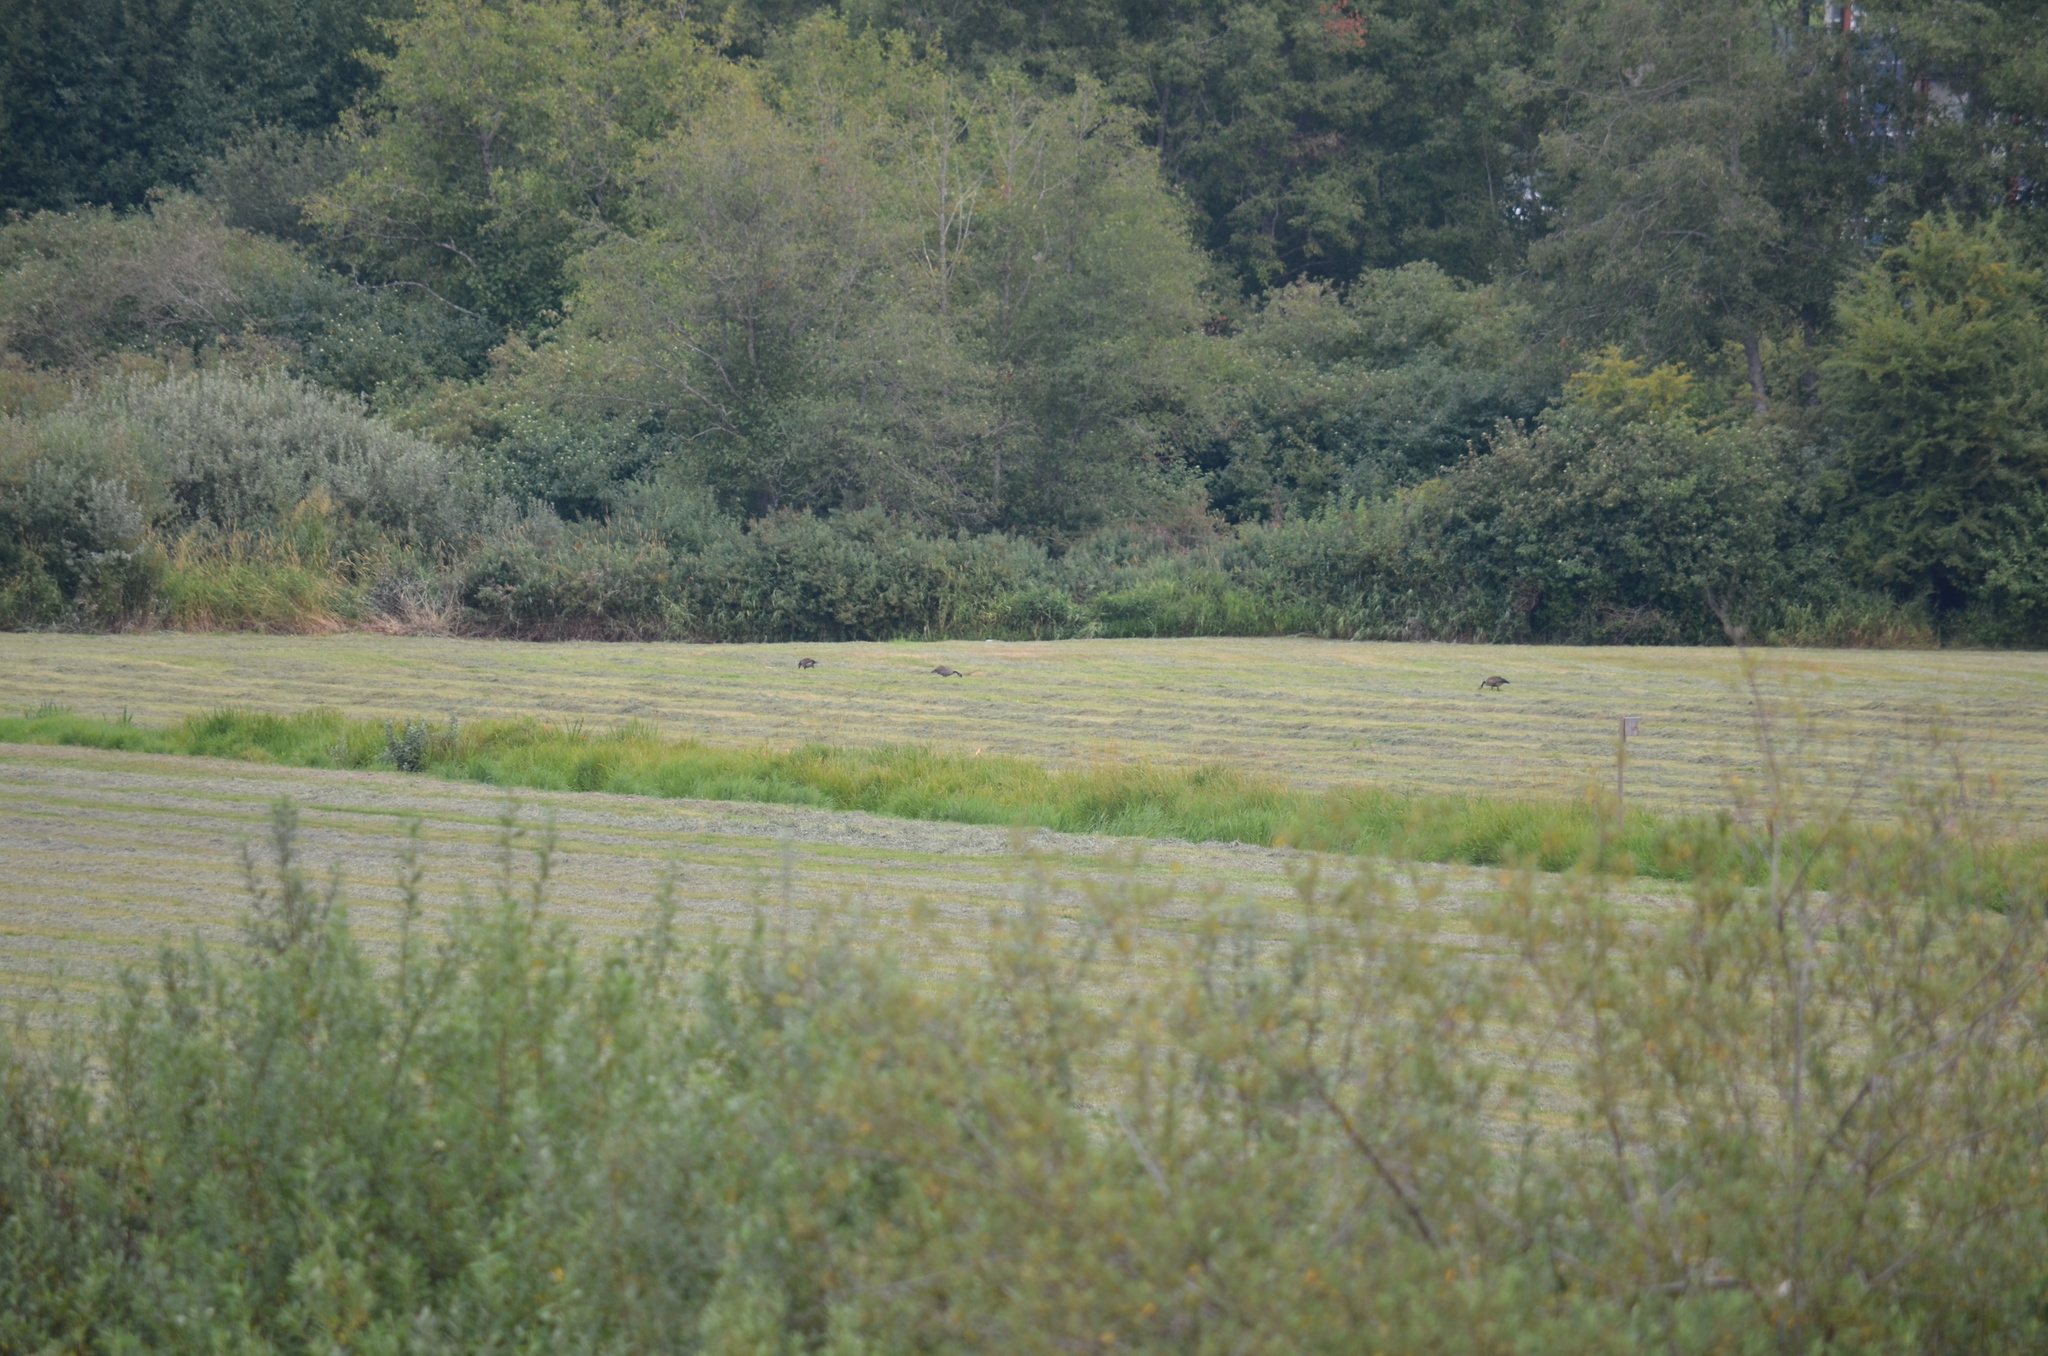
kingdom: Animalia
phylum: Chordata
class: Aves
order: Anseriformes
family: Anatidae
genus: Branta
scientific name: Branta canadensis
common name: Canada goose
